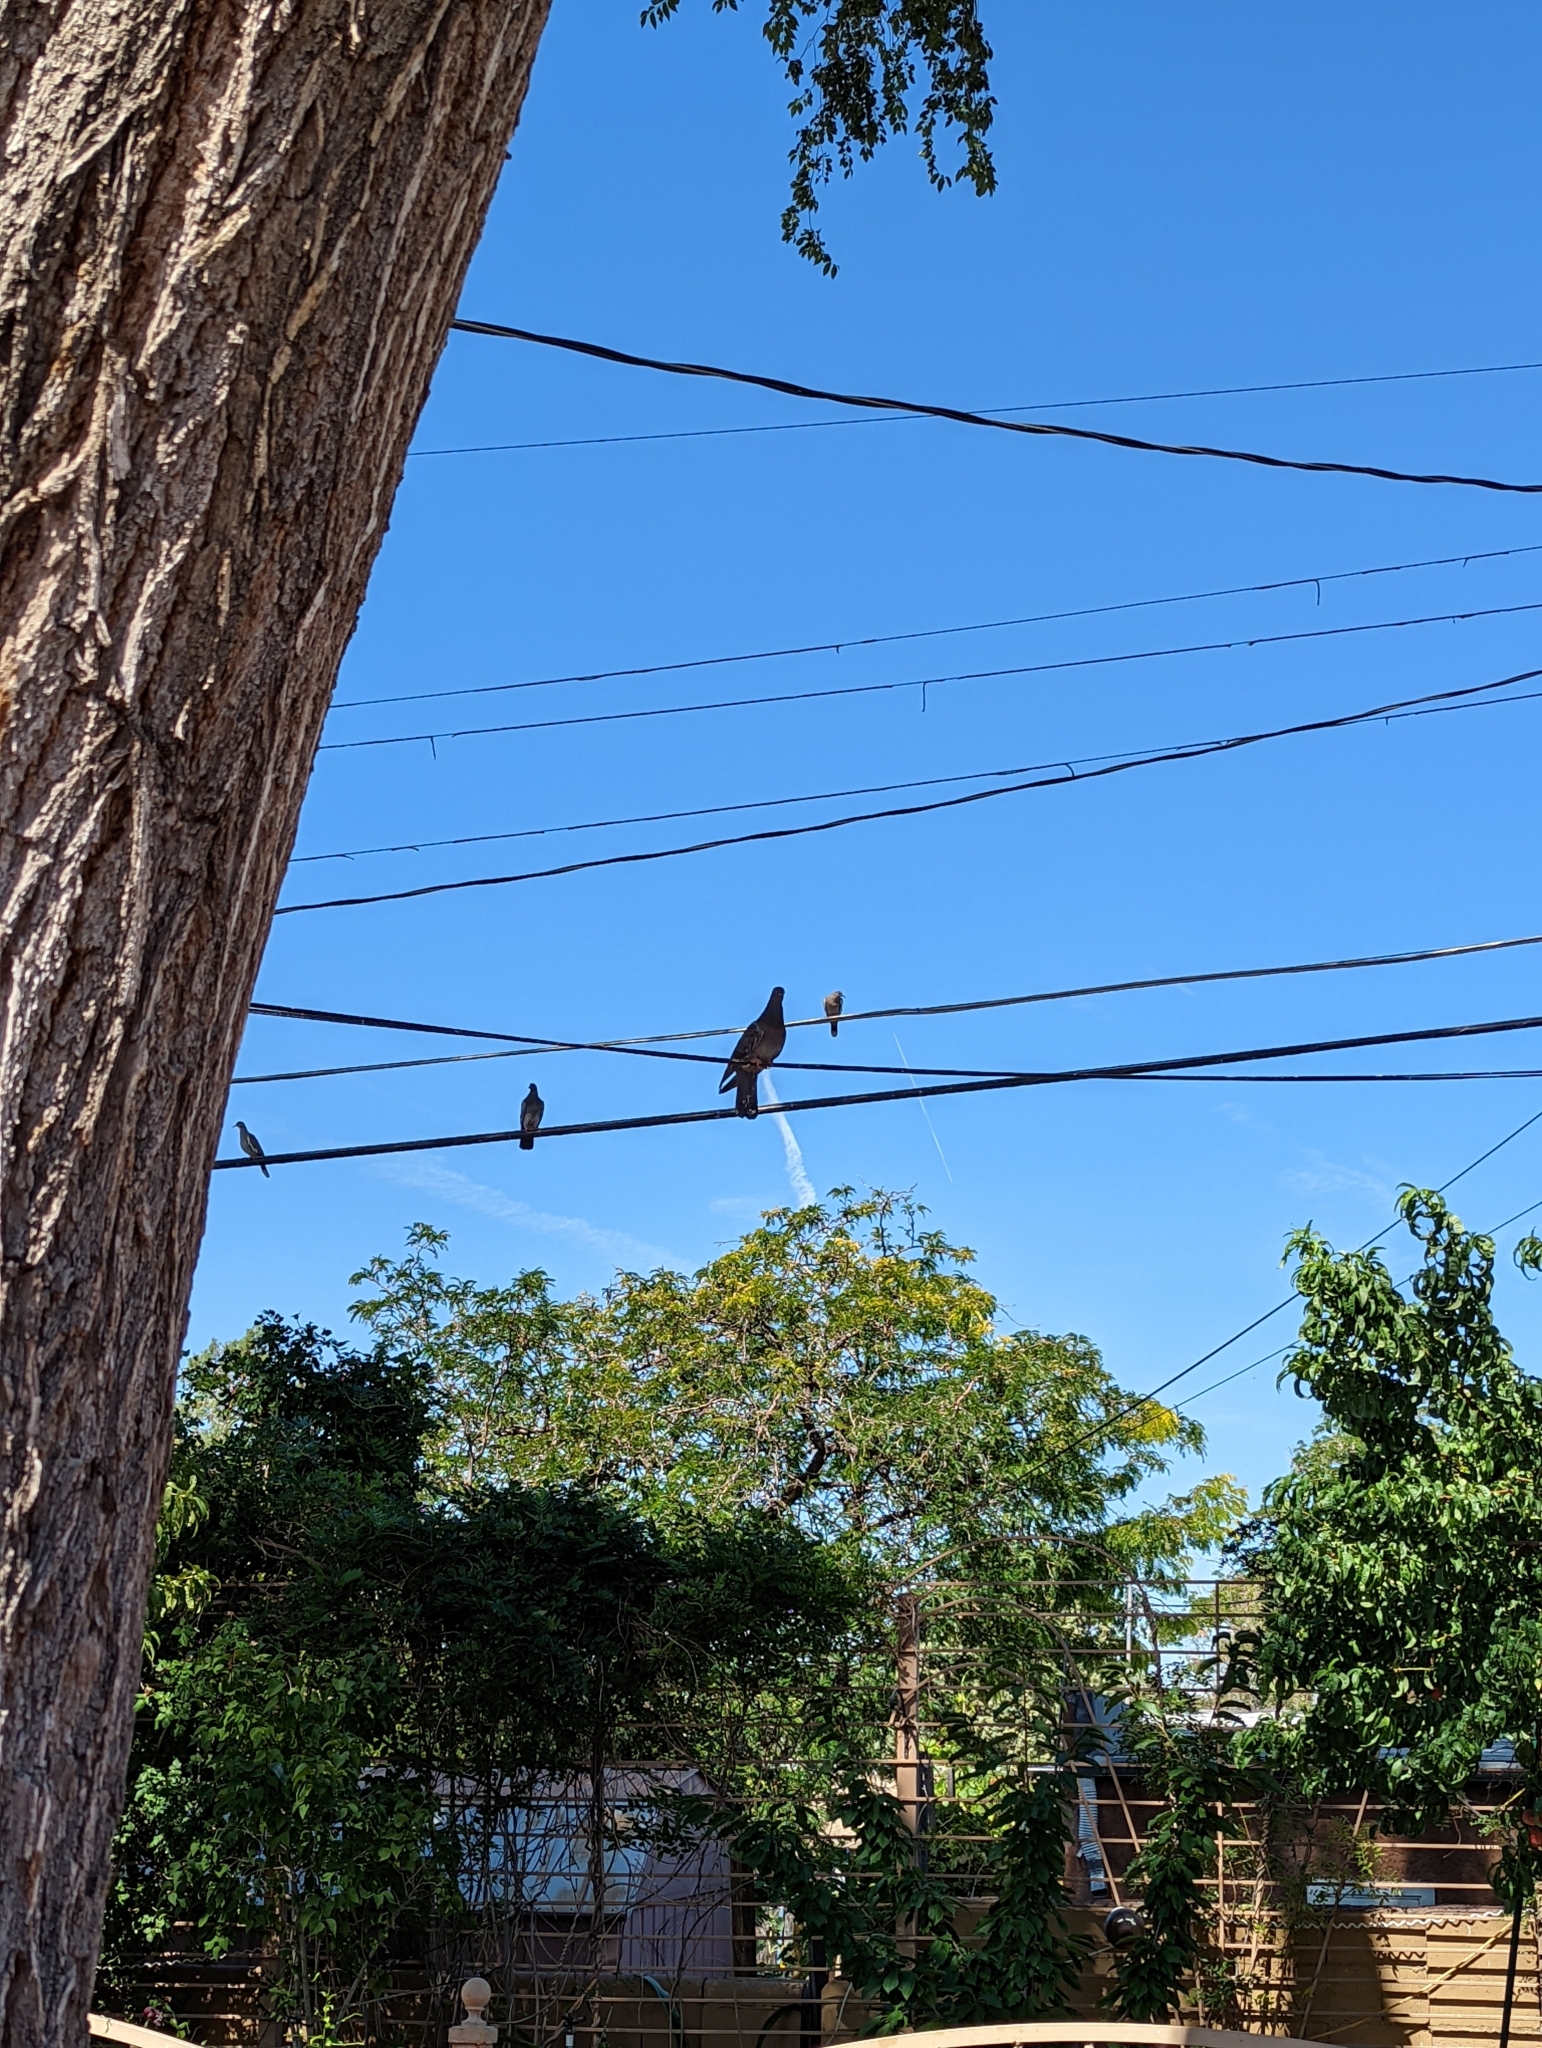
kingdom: Animalia
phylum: Chordata
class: Aves
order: Columbiformes
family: Columbidae
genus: Columba
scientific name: Columba livia
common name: Rock pigeon
